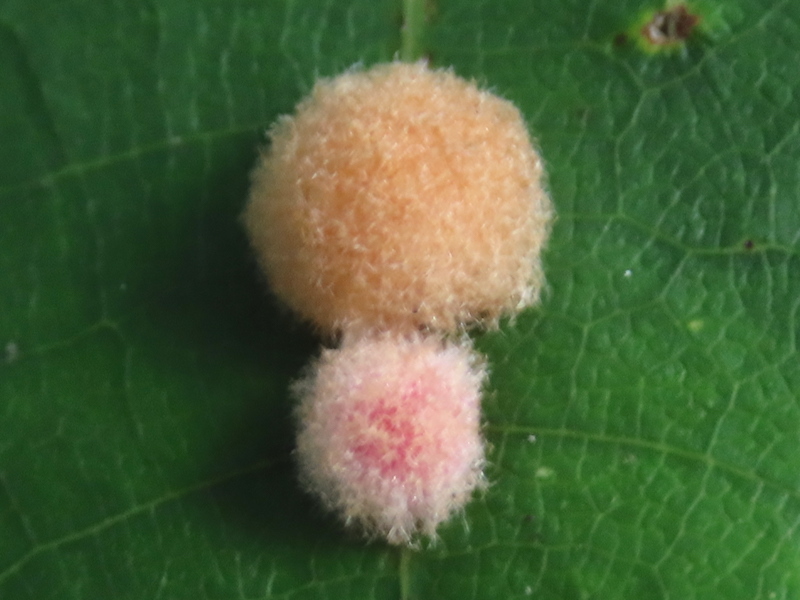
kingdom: Animalia
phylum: Arthropoda
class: Insecta
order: Hymenoptera
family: Cynipidae
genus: Callirhytis
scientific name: Callirhytis
